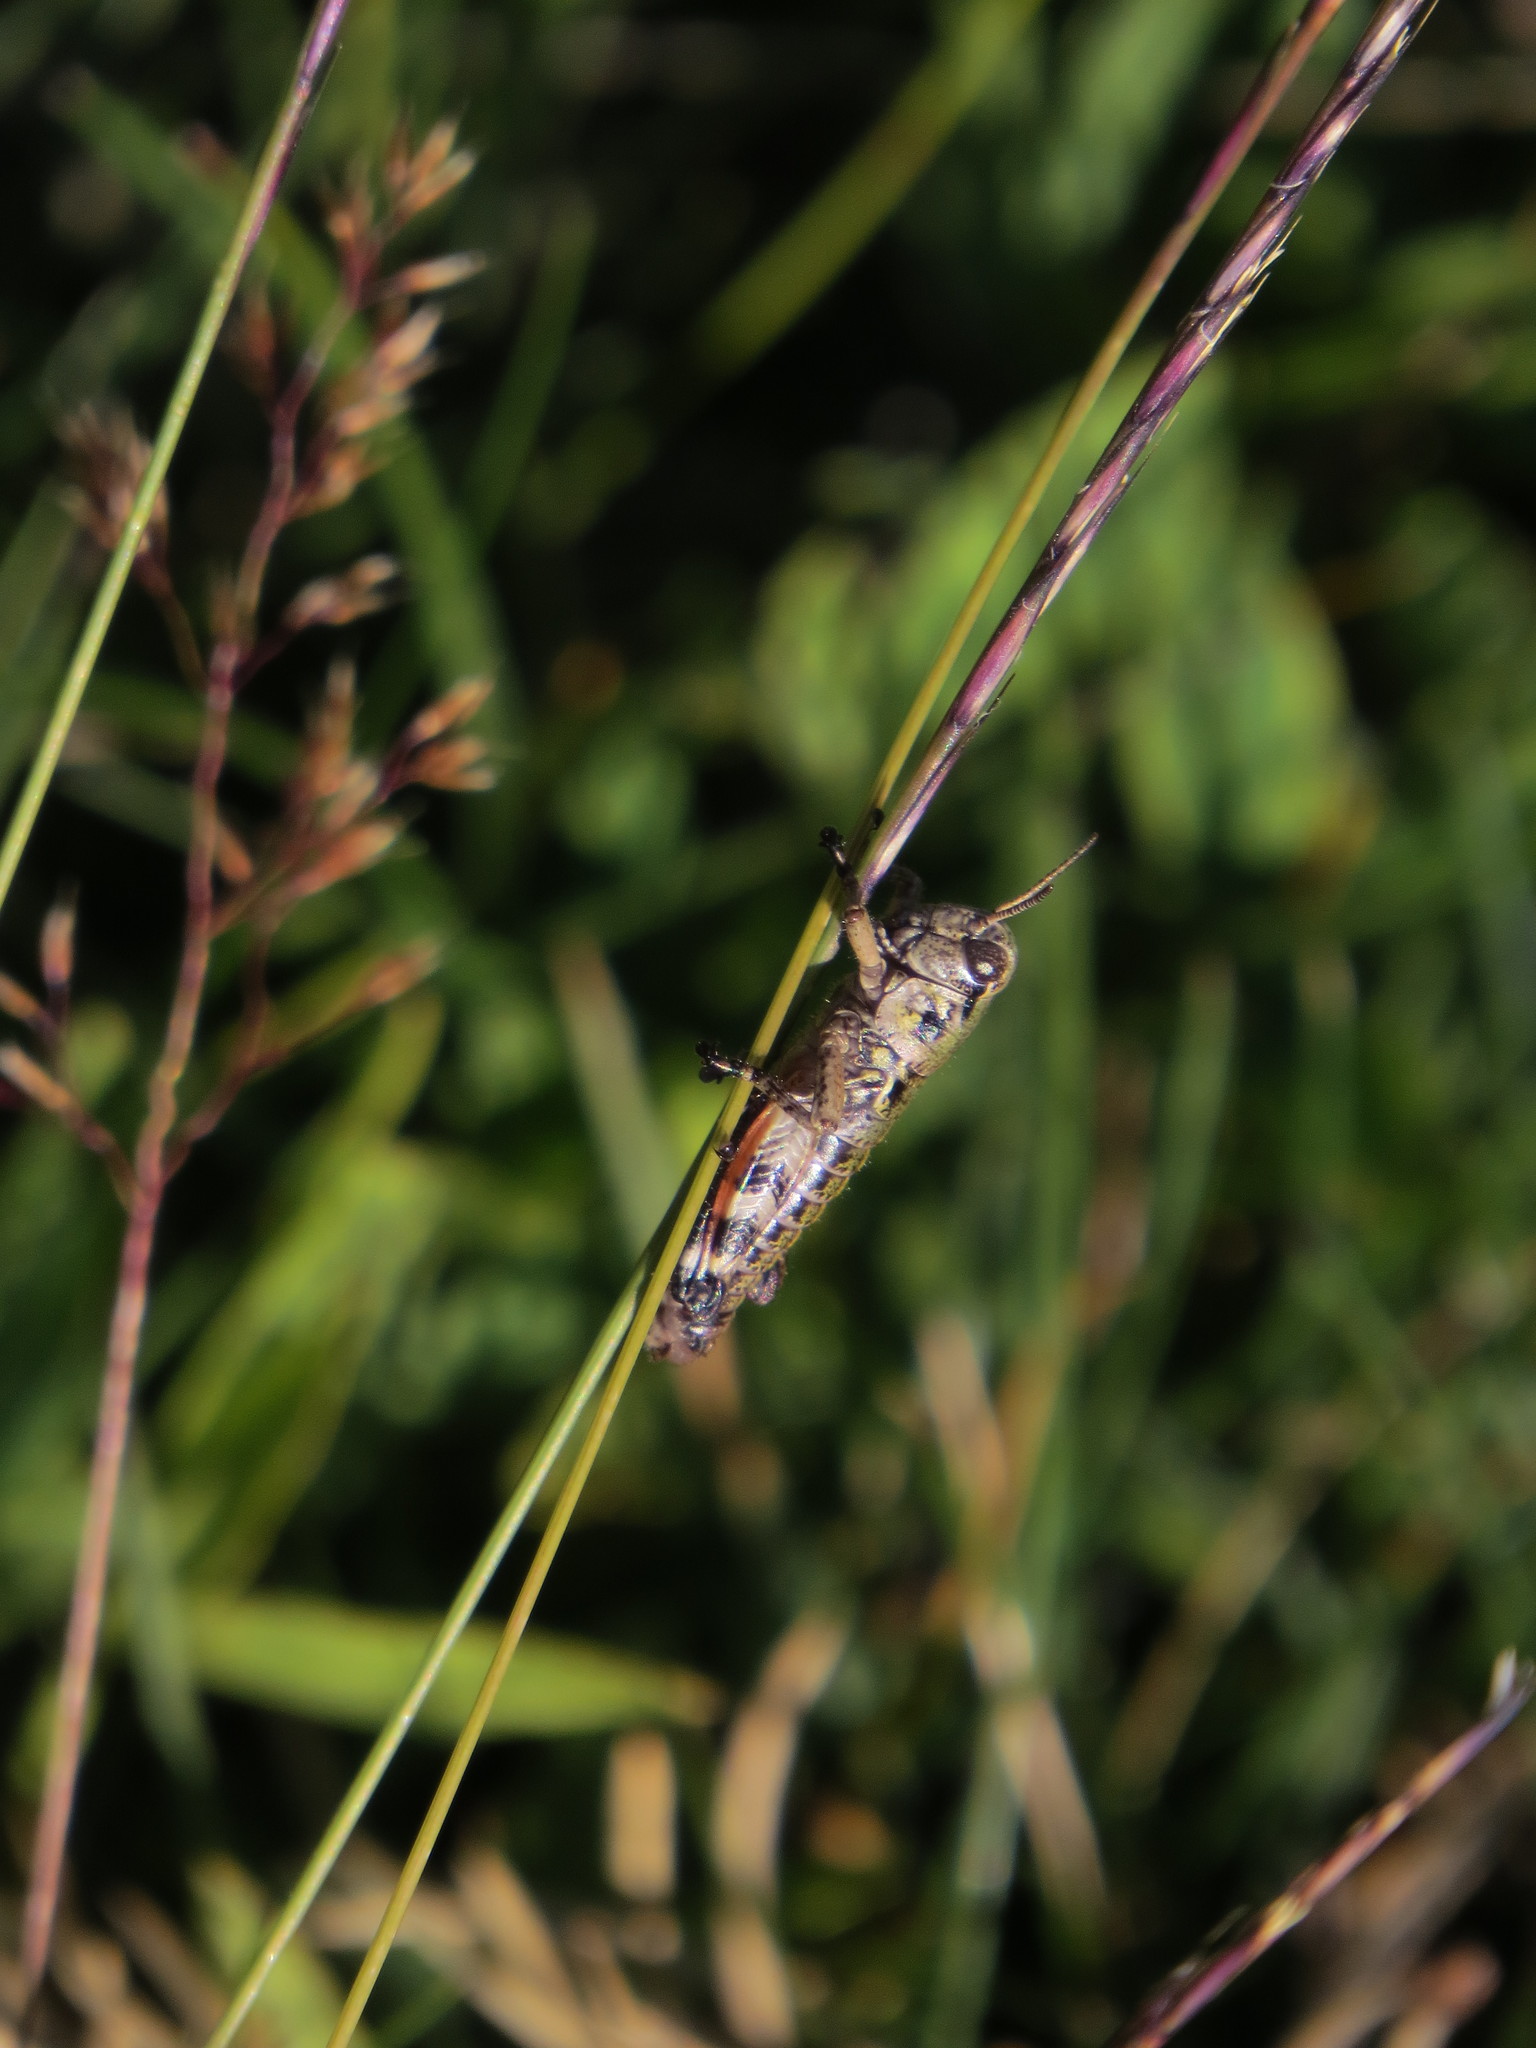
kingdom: Animalia
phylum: Arthropoda
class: Insecta
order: Orthoptera
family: Acrididae
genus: Cophopodisma
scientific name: Cophopodisma pyrenaea
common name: Pyrenean mountain grasshopper
